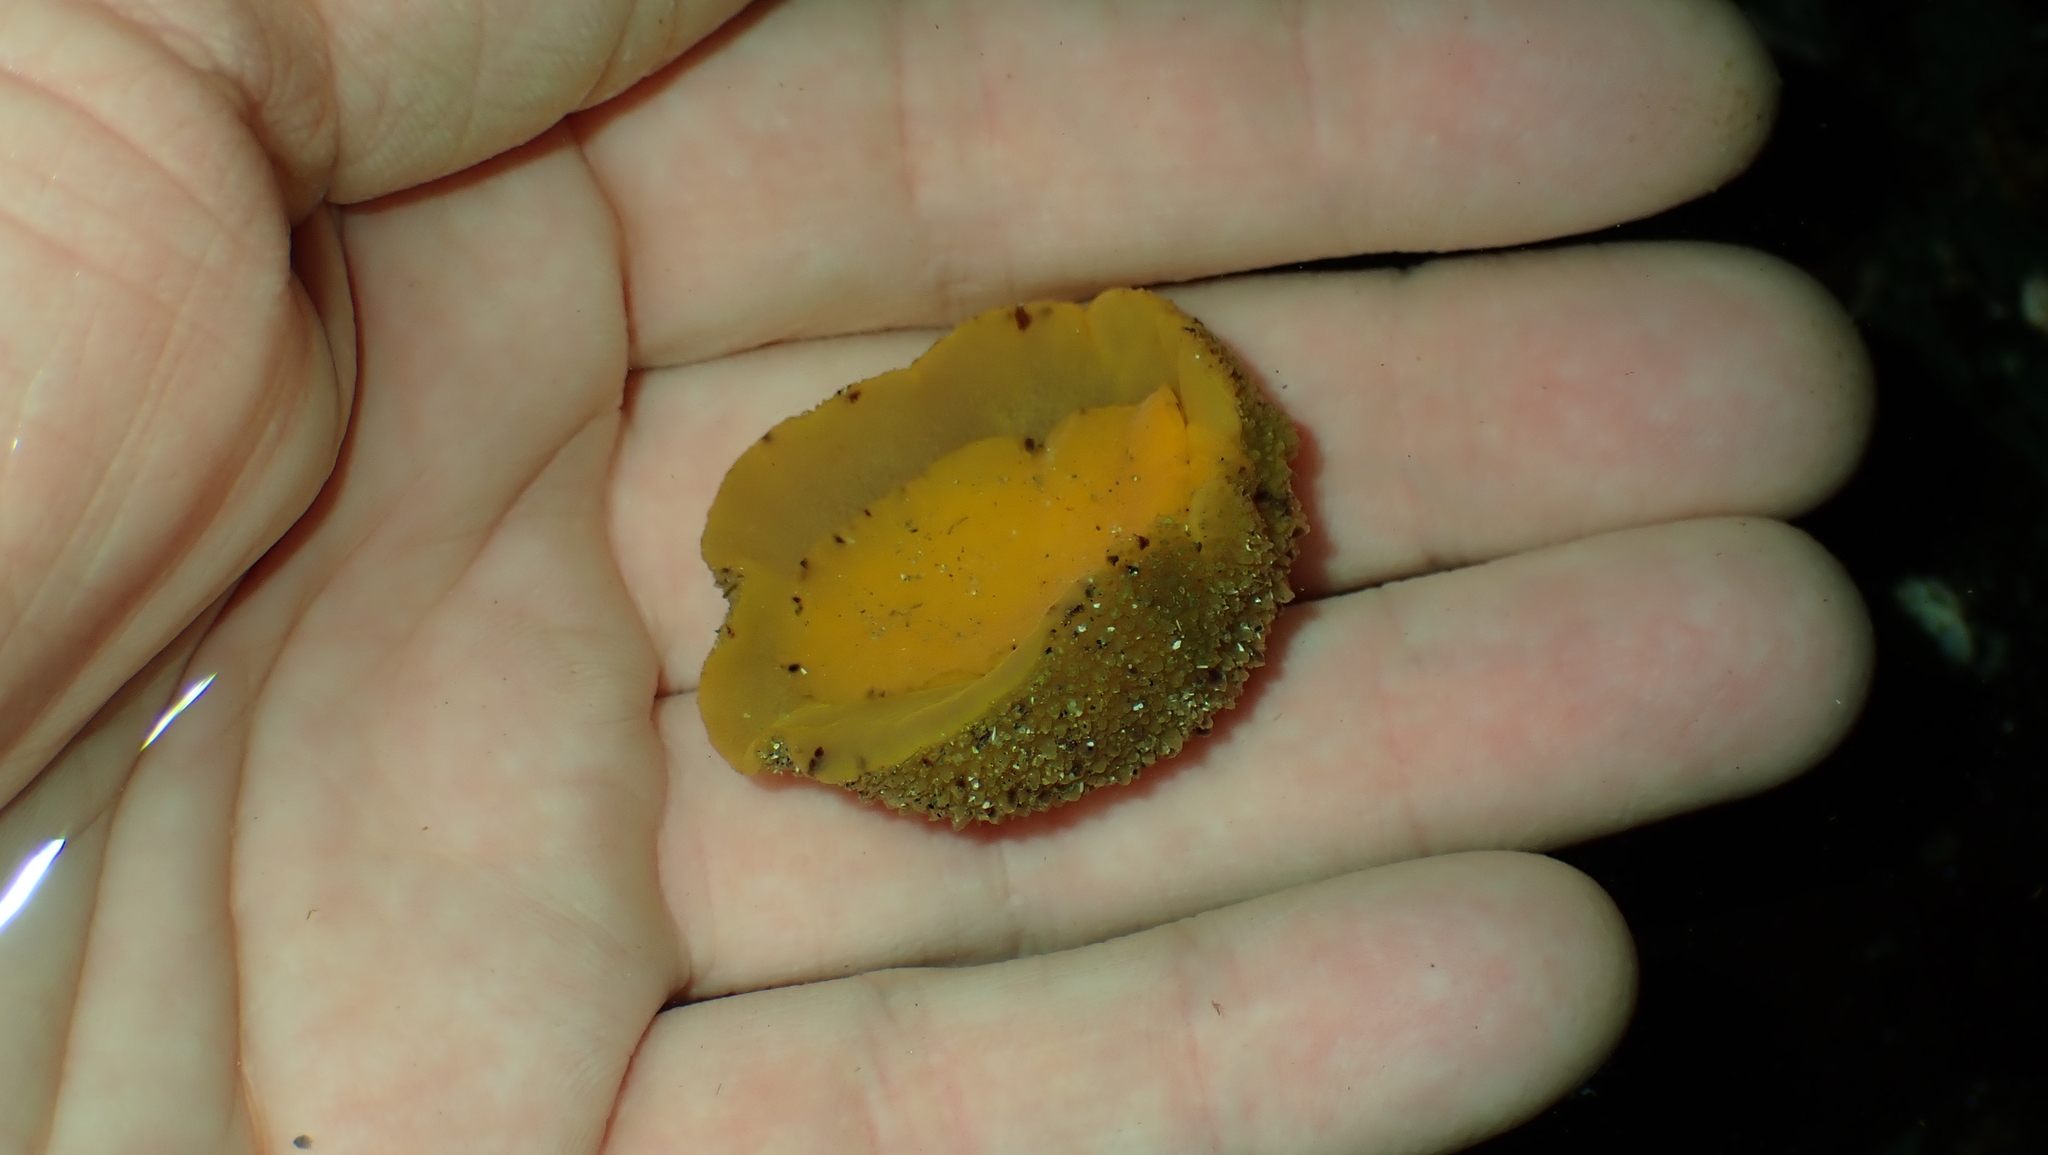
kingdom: Animalia
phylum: Mollusca
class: Gastropoda
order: Nudibranchia
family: Dorididae
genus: Doris
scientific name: Doris montereyensis
